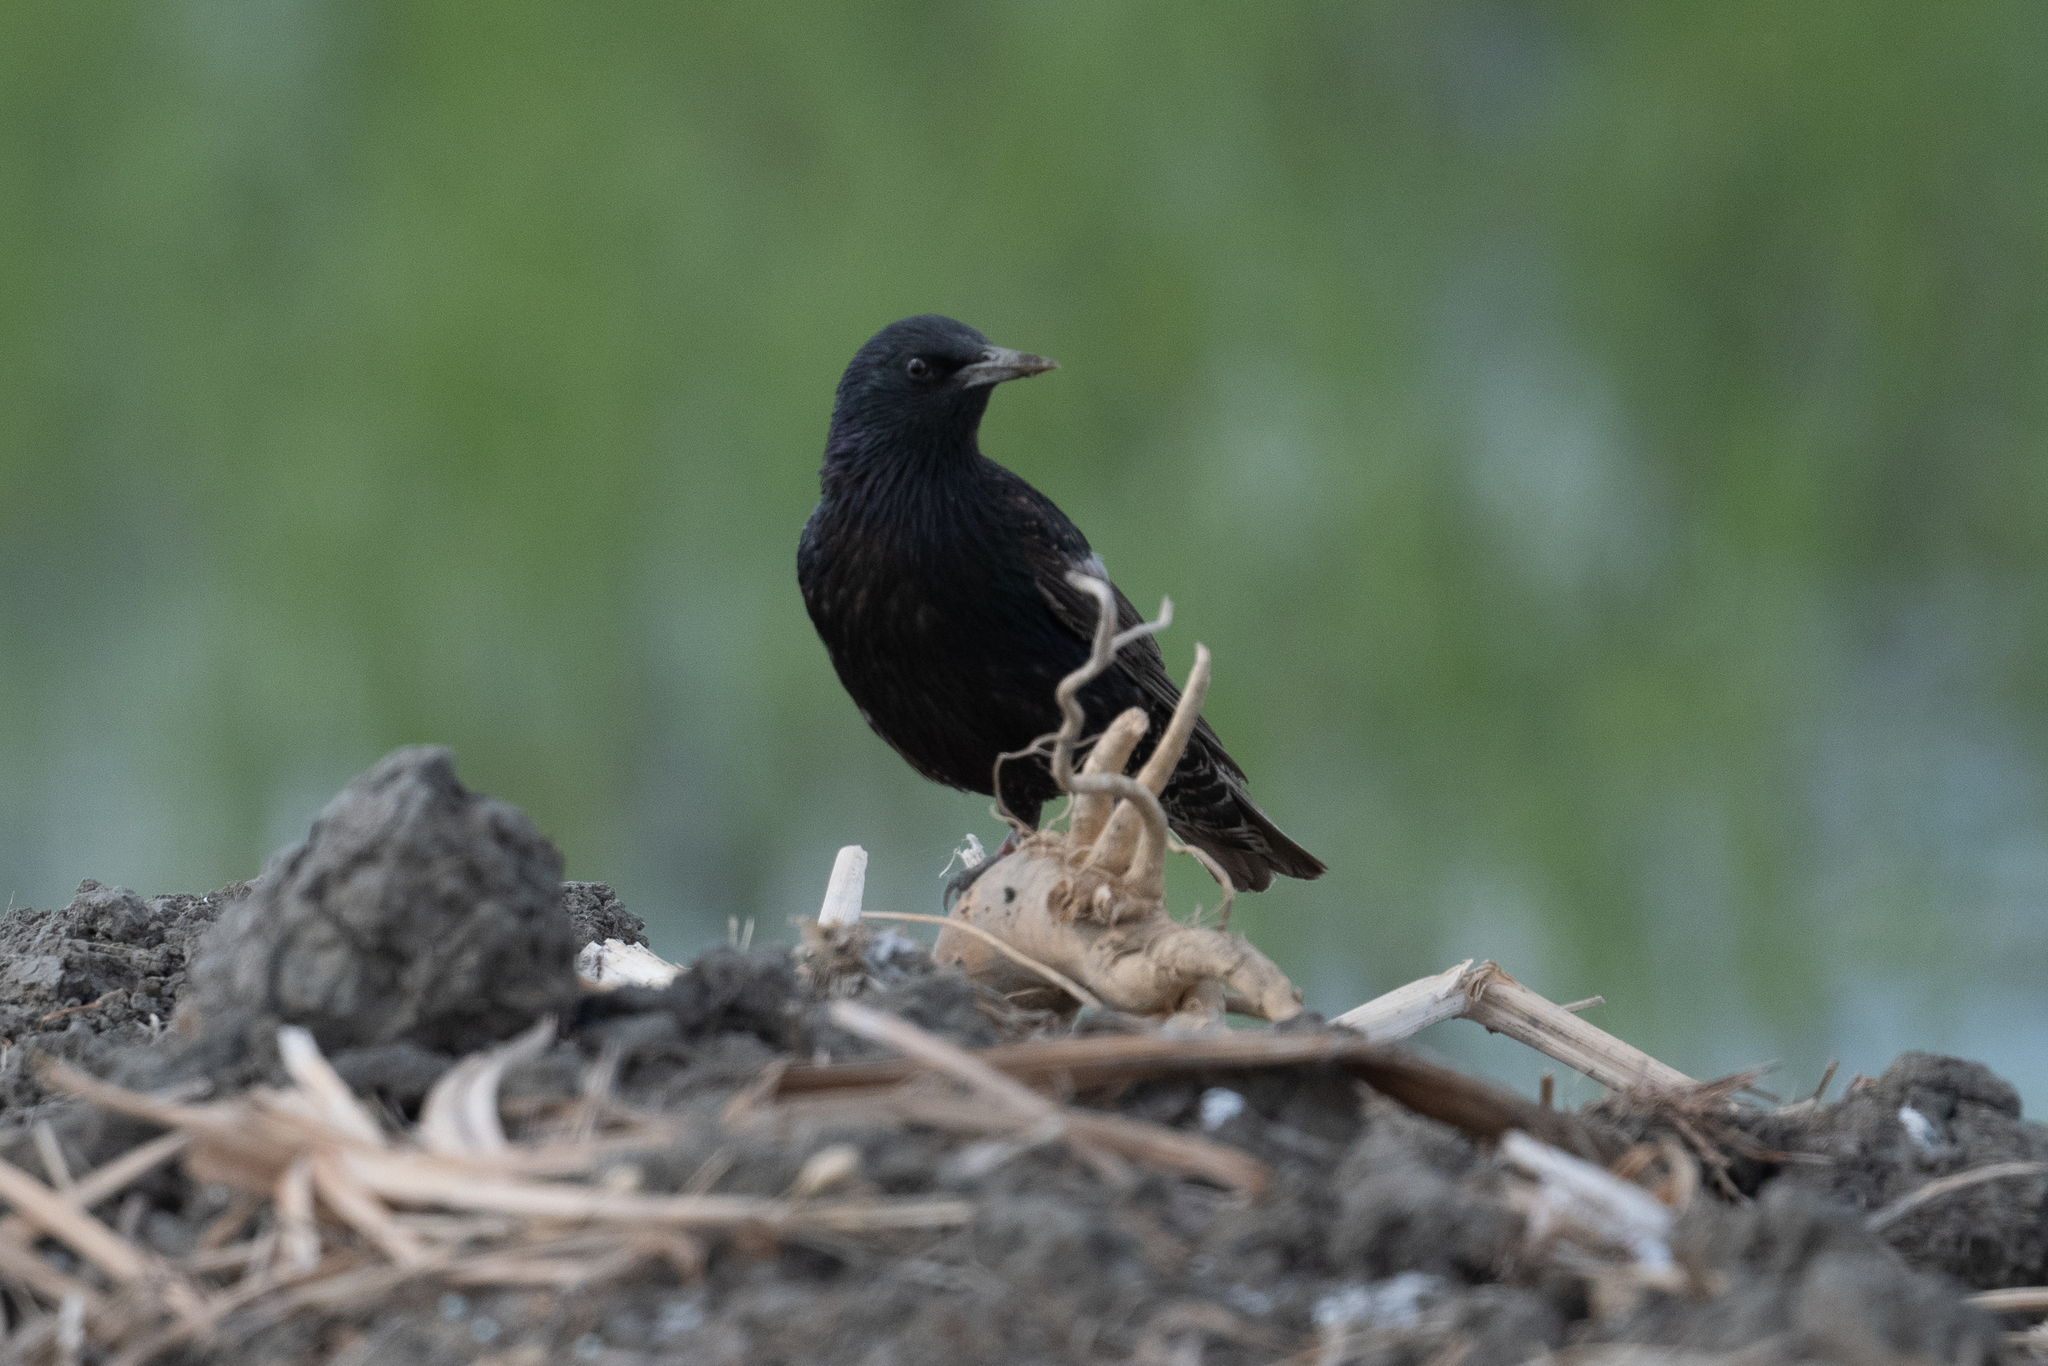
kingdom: Animalia
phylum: Chordata
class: Aves
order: Passeriformes
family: Sturnidae
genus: Sturnus
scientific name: Sturnus vulgaris
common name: Common starling
